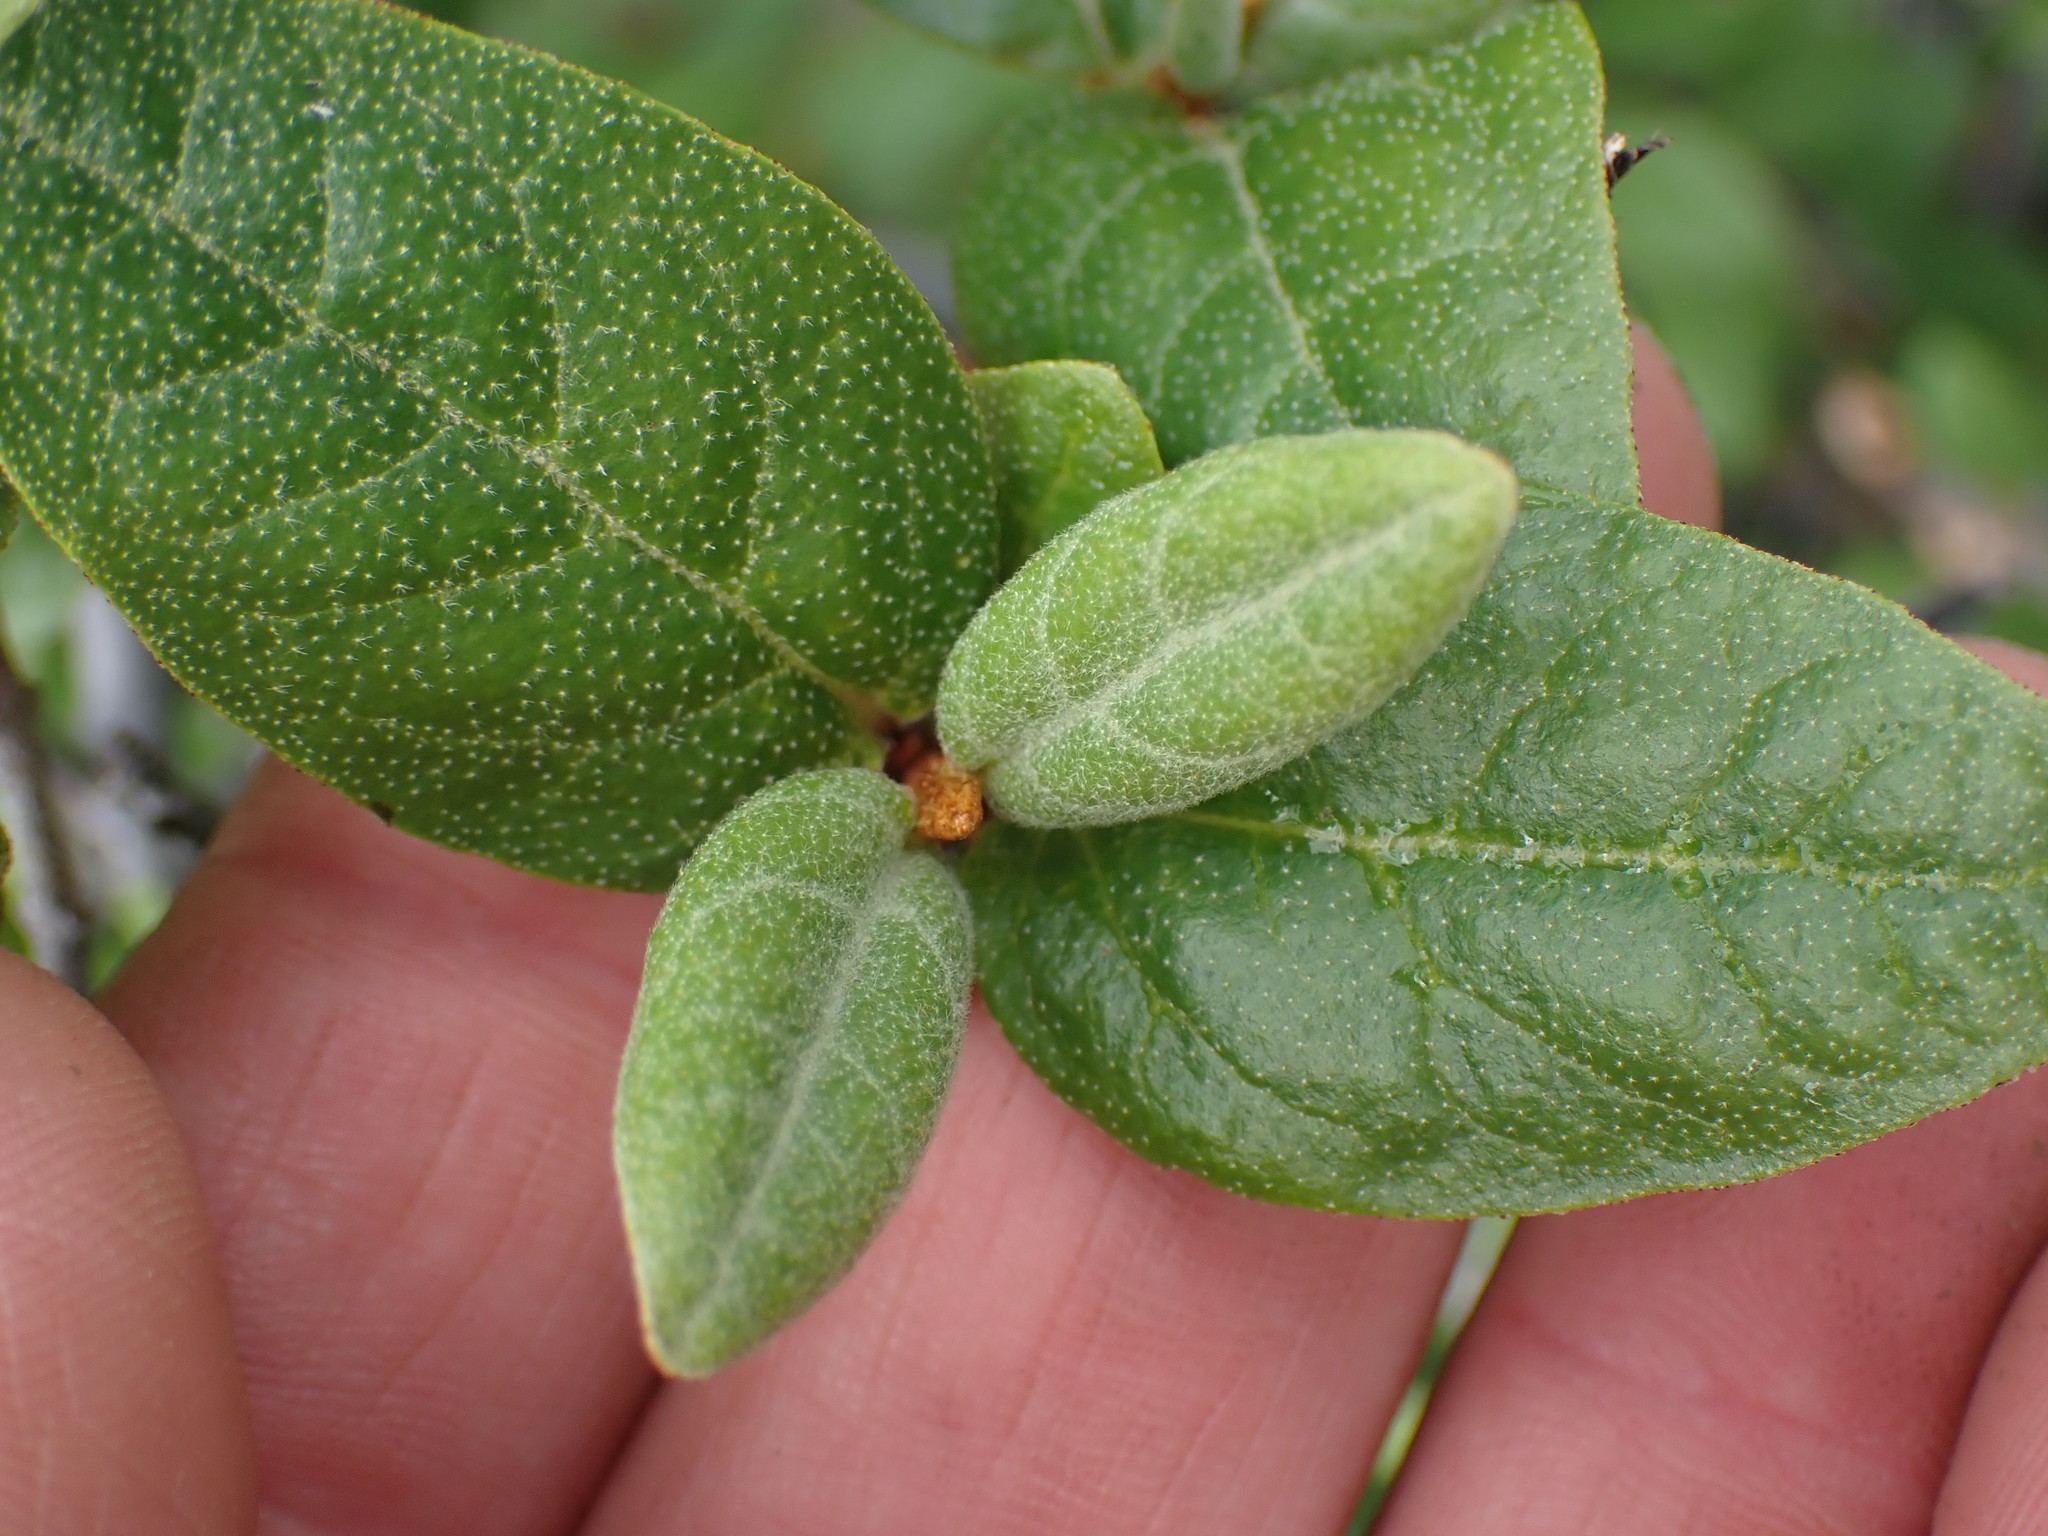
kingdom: Plantae
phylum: Tracheophyta
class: Magnoliopsida
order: Rosales
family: Elaeagnaceae
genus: Shepherdia
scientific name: Shepherdia canadensis
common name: Soapberry
